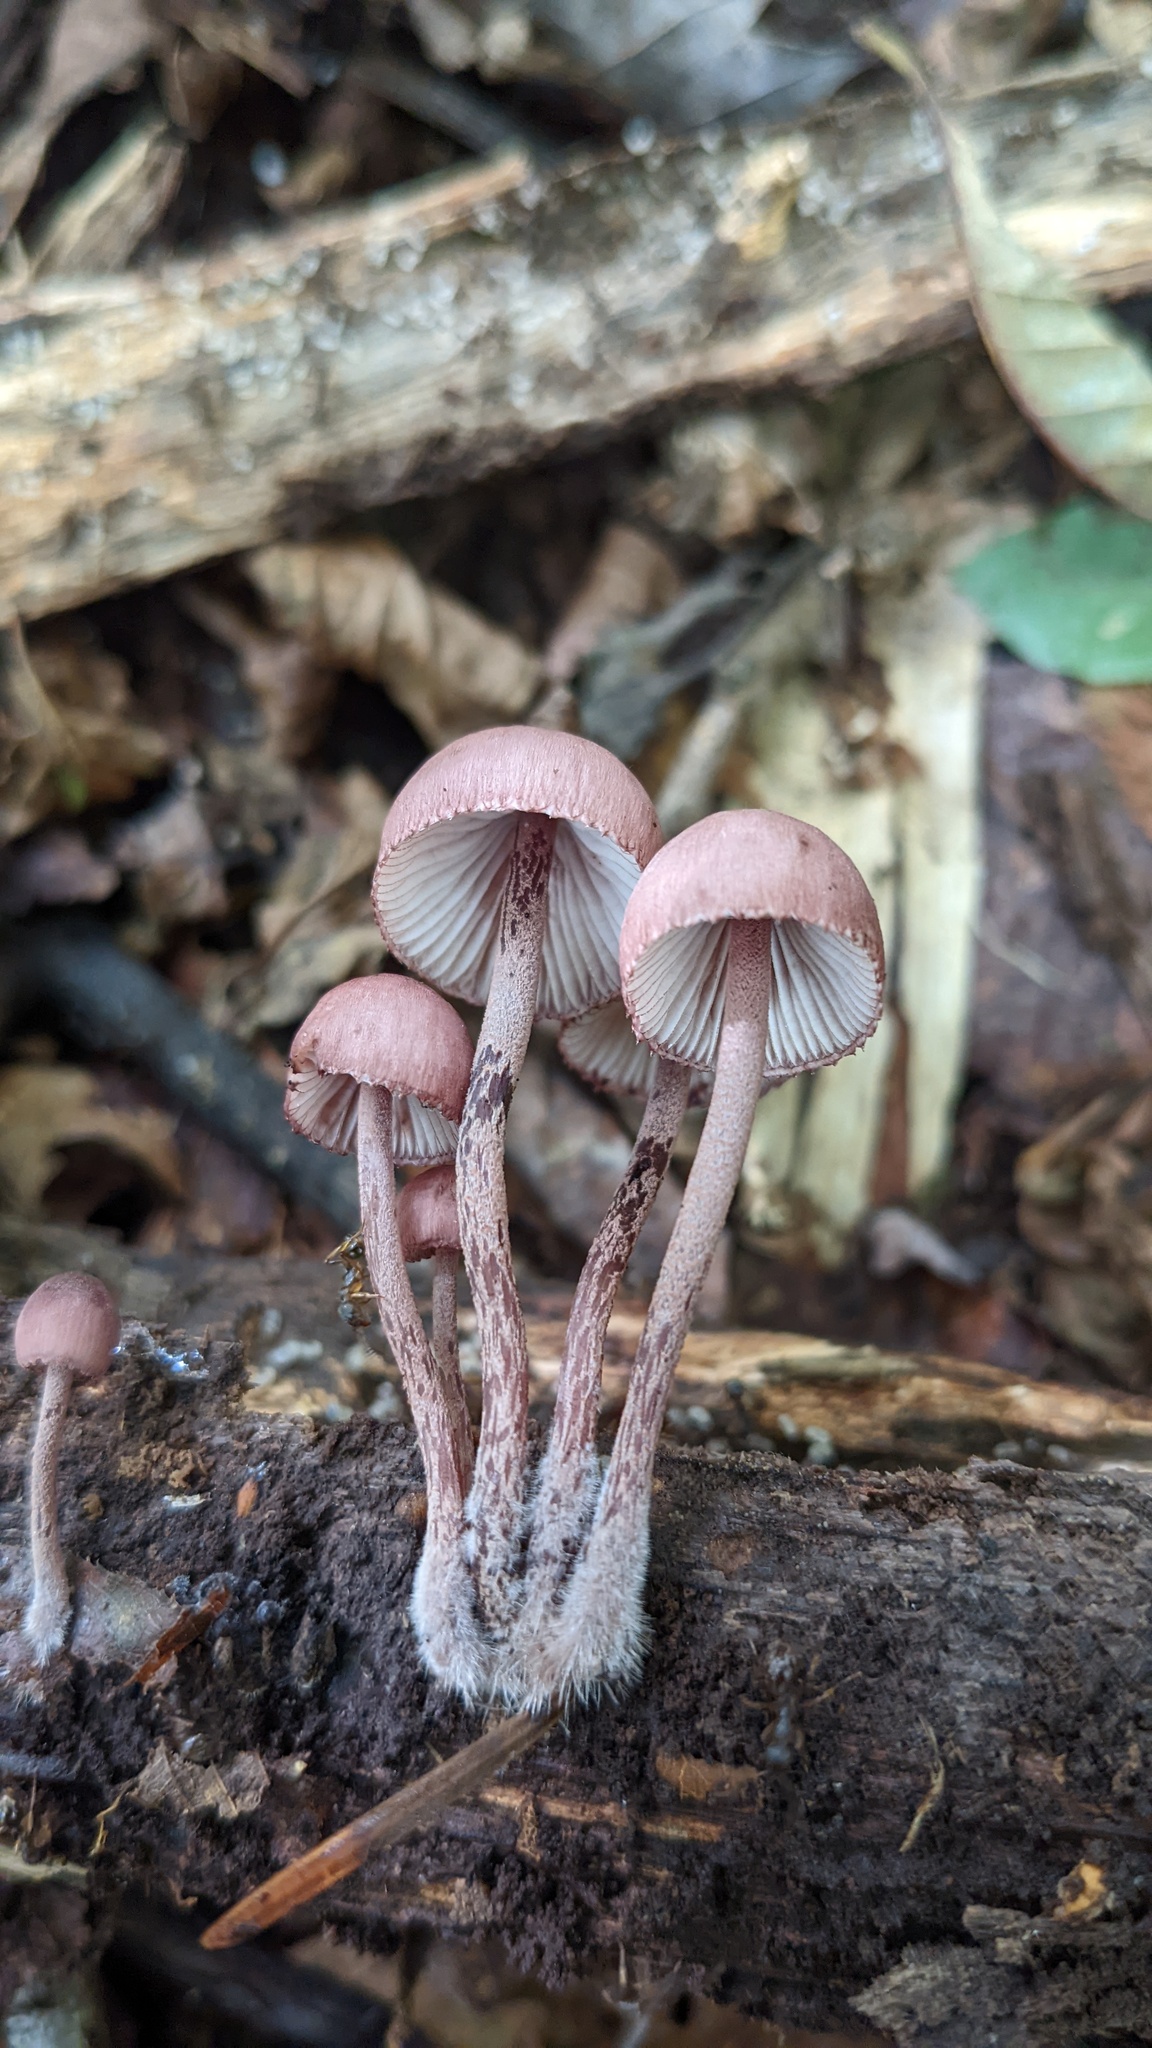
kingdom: Fungi
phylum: Basidiomycota
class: Agaricomycetes
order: Agaricales
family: Mycenaceae
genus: Mycena
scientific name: Mycena haematopus
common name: Burgundydrop bonnet
